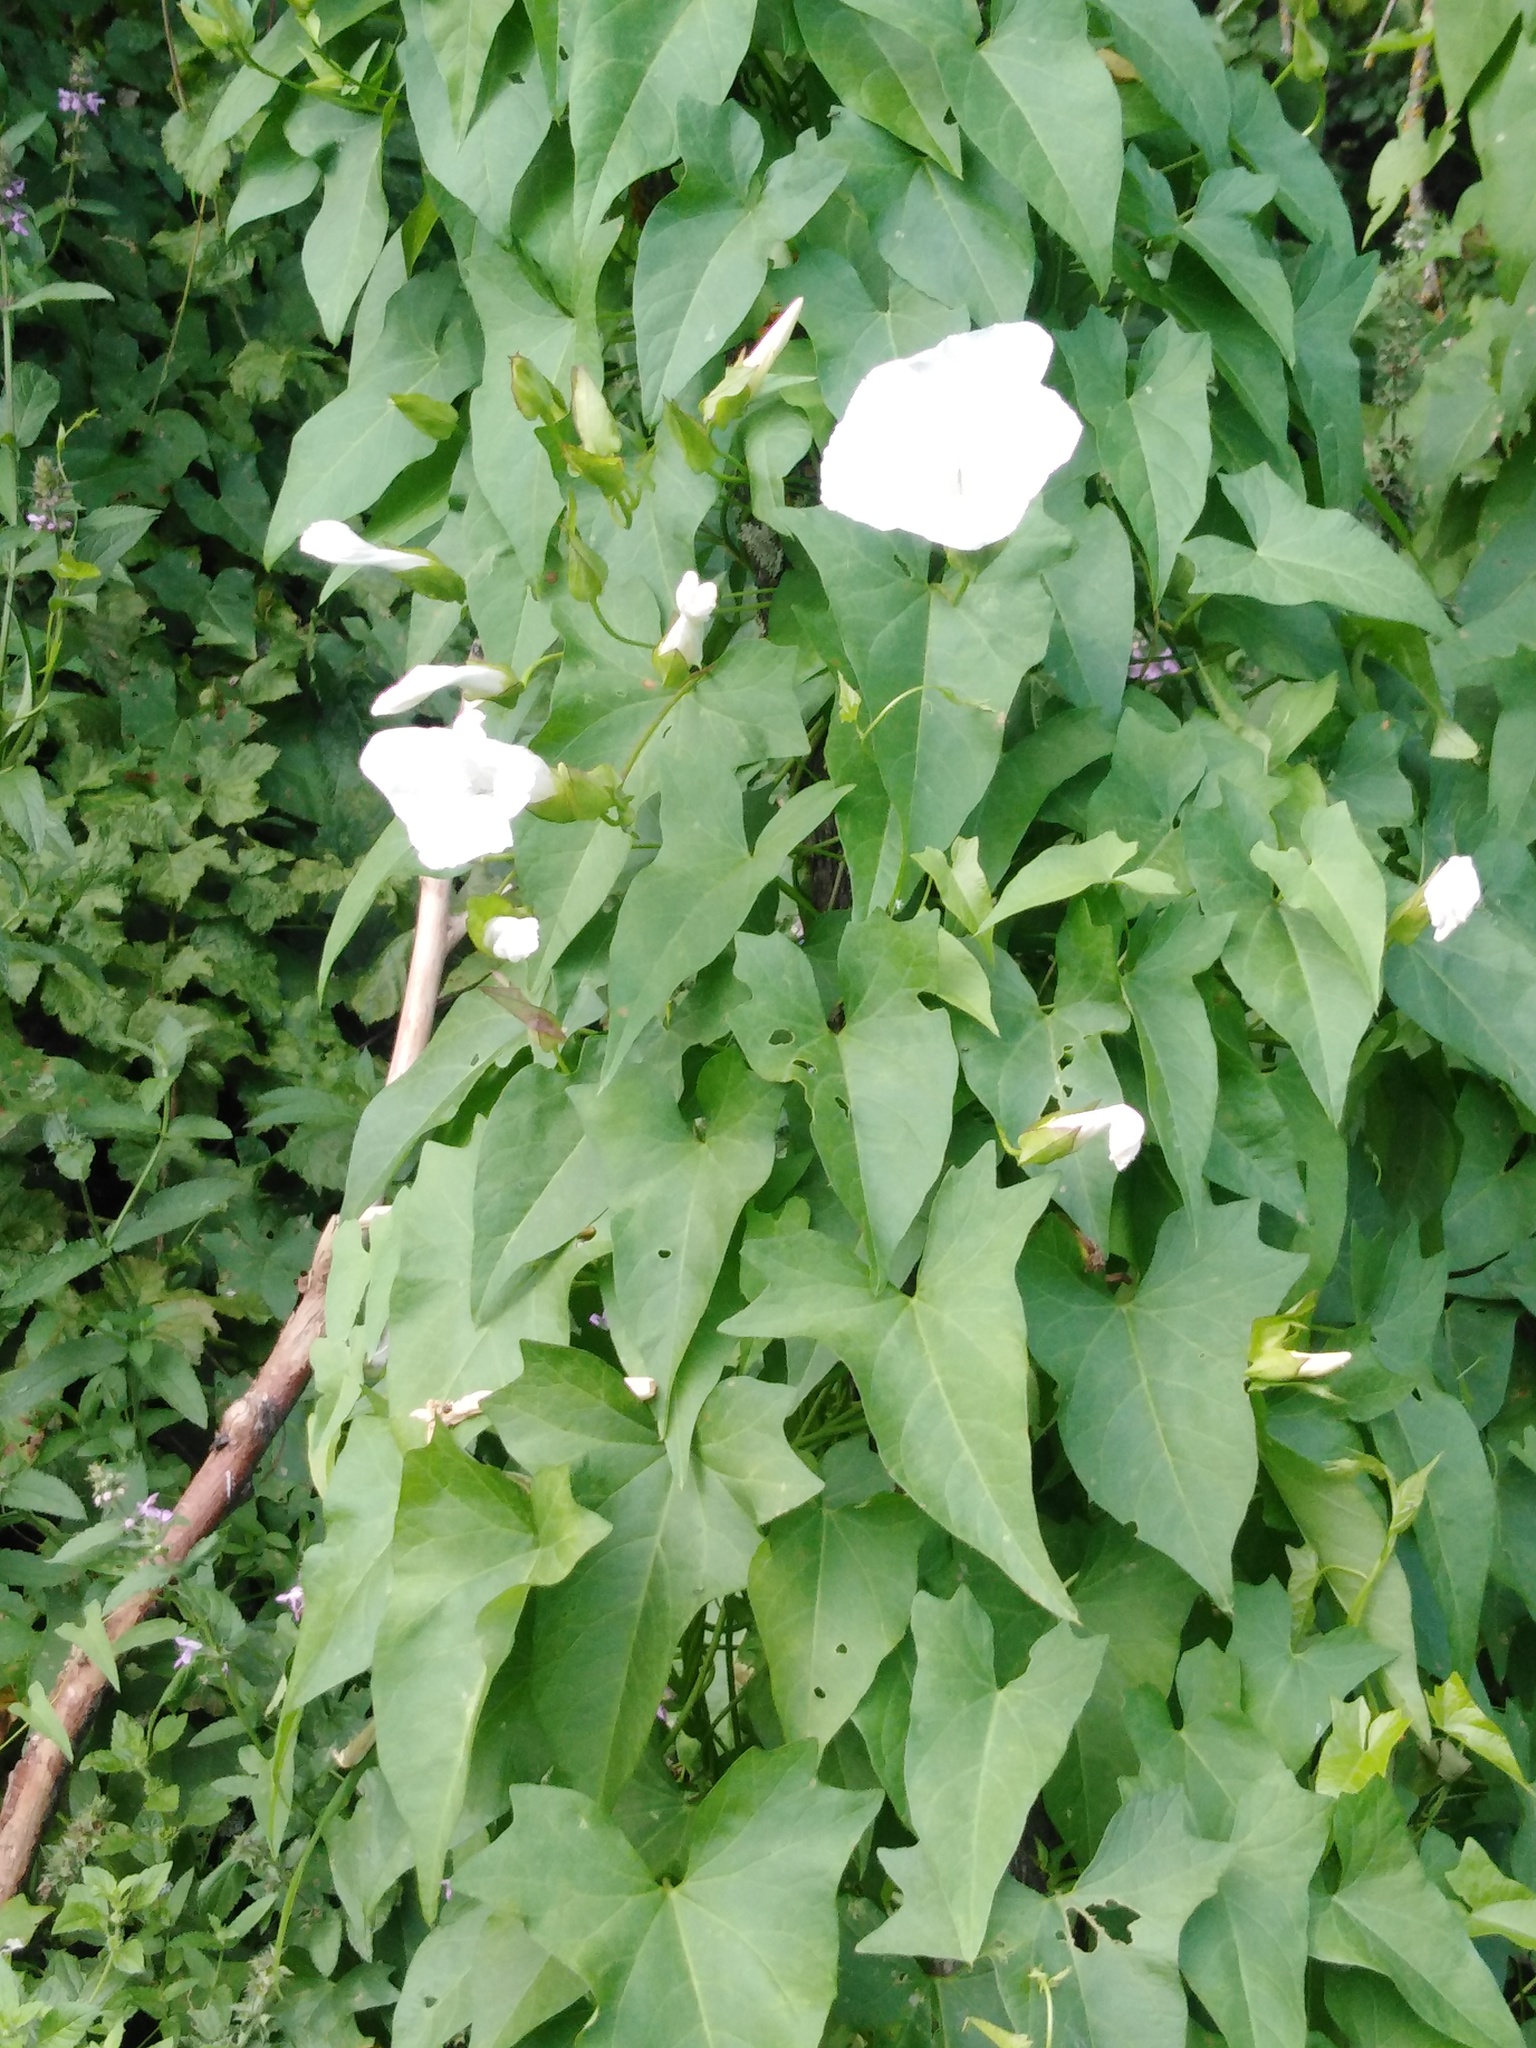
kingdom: Plantae
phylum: Tracheophyta
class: Magnoliopsida
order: Solanales
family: Convolvulaceae
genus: Calystegia
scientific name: Calystegia sepium
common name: Hedge bindweed
